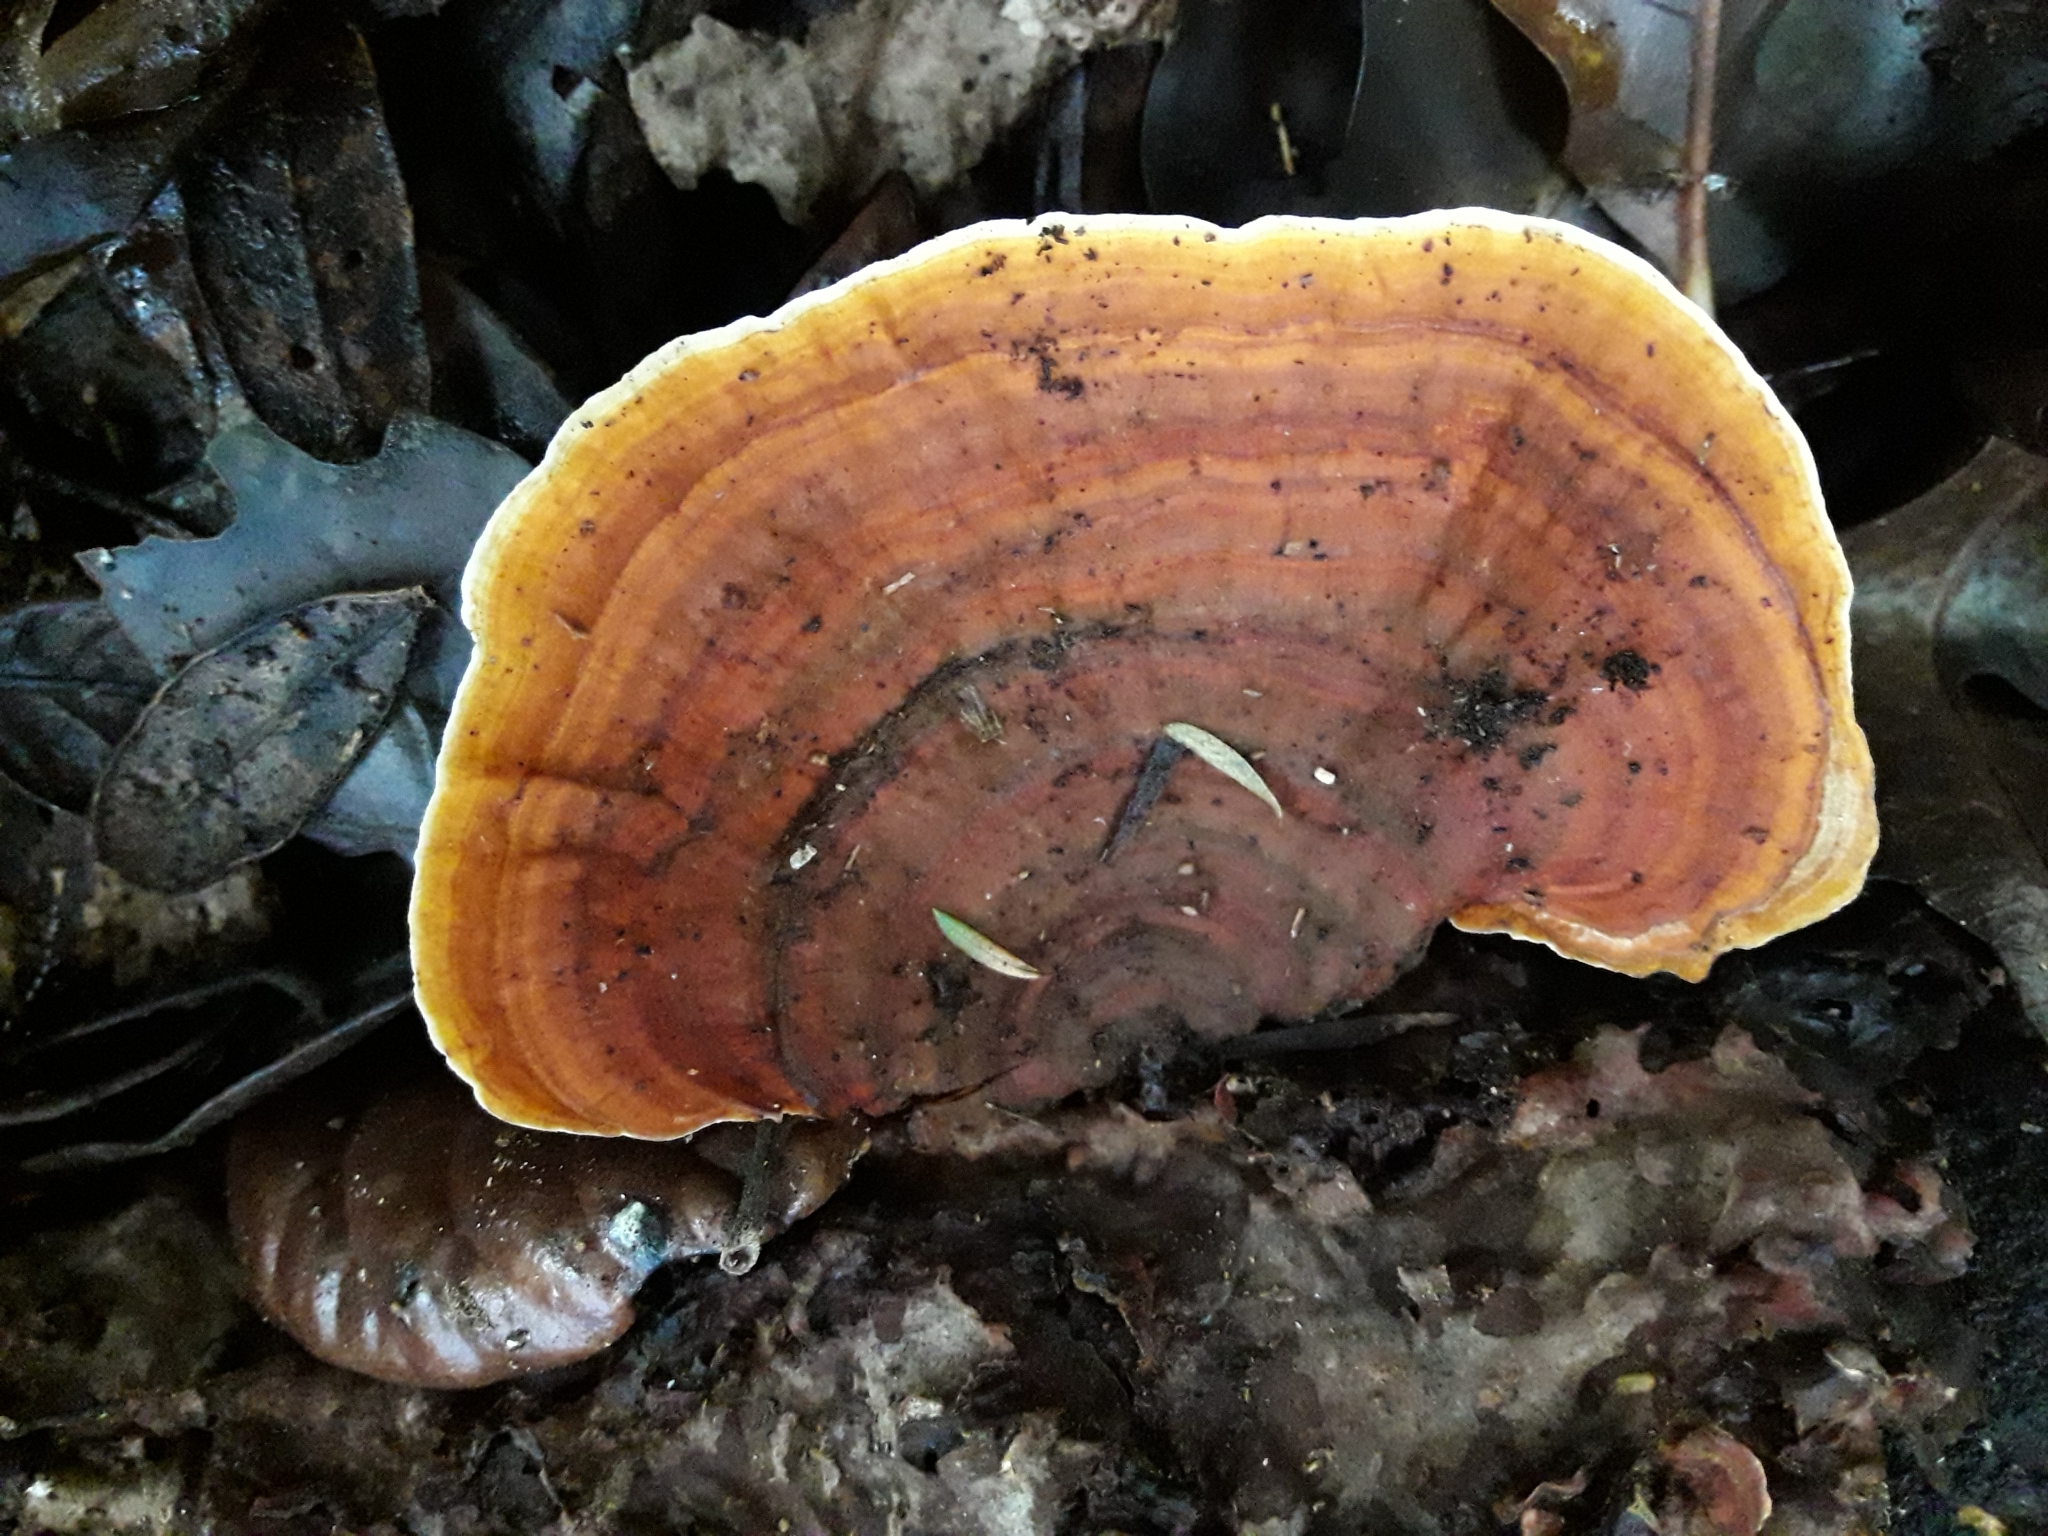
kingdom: Fungi
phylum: Basidiomycota
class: Agaricomycetes
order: Russulales
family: Stereaceae
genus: Stereum
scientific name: Stereum versicolor
